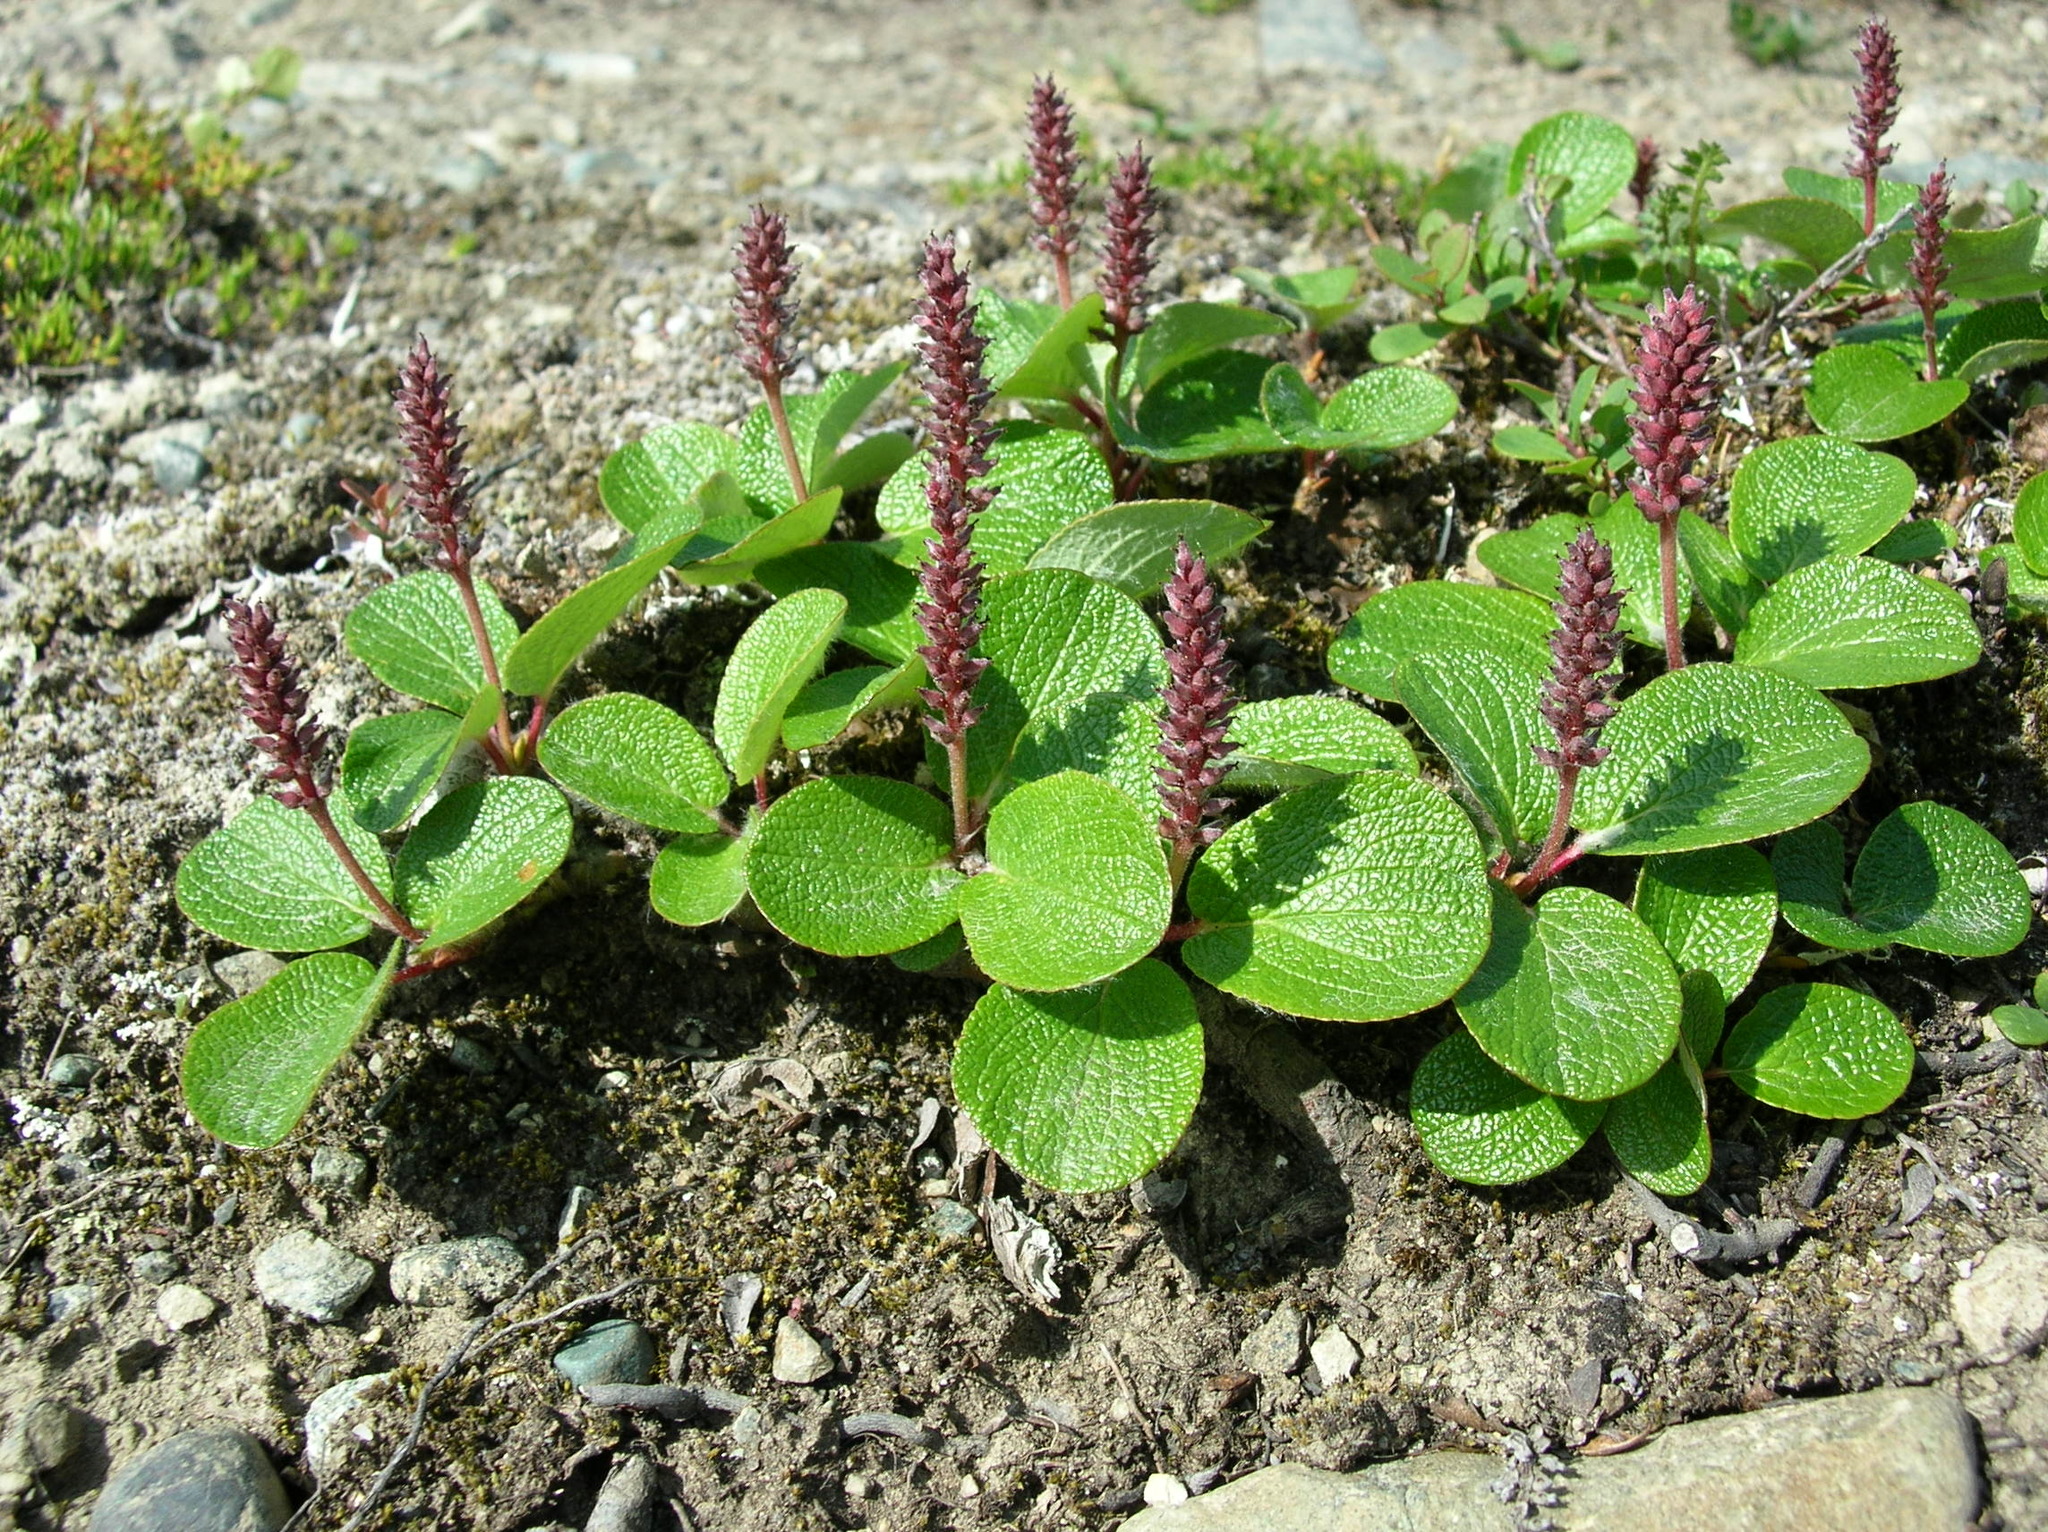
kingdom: Plantae
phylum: Tracheophyta
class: Magnoliopsida
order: Malpighiales
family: Salicaceae
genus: Salix
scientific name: Salix reticulata
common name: Net-leaved willow
